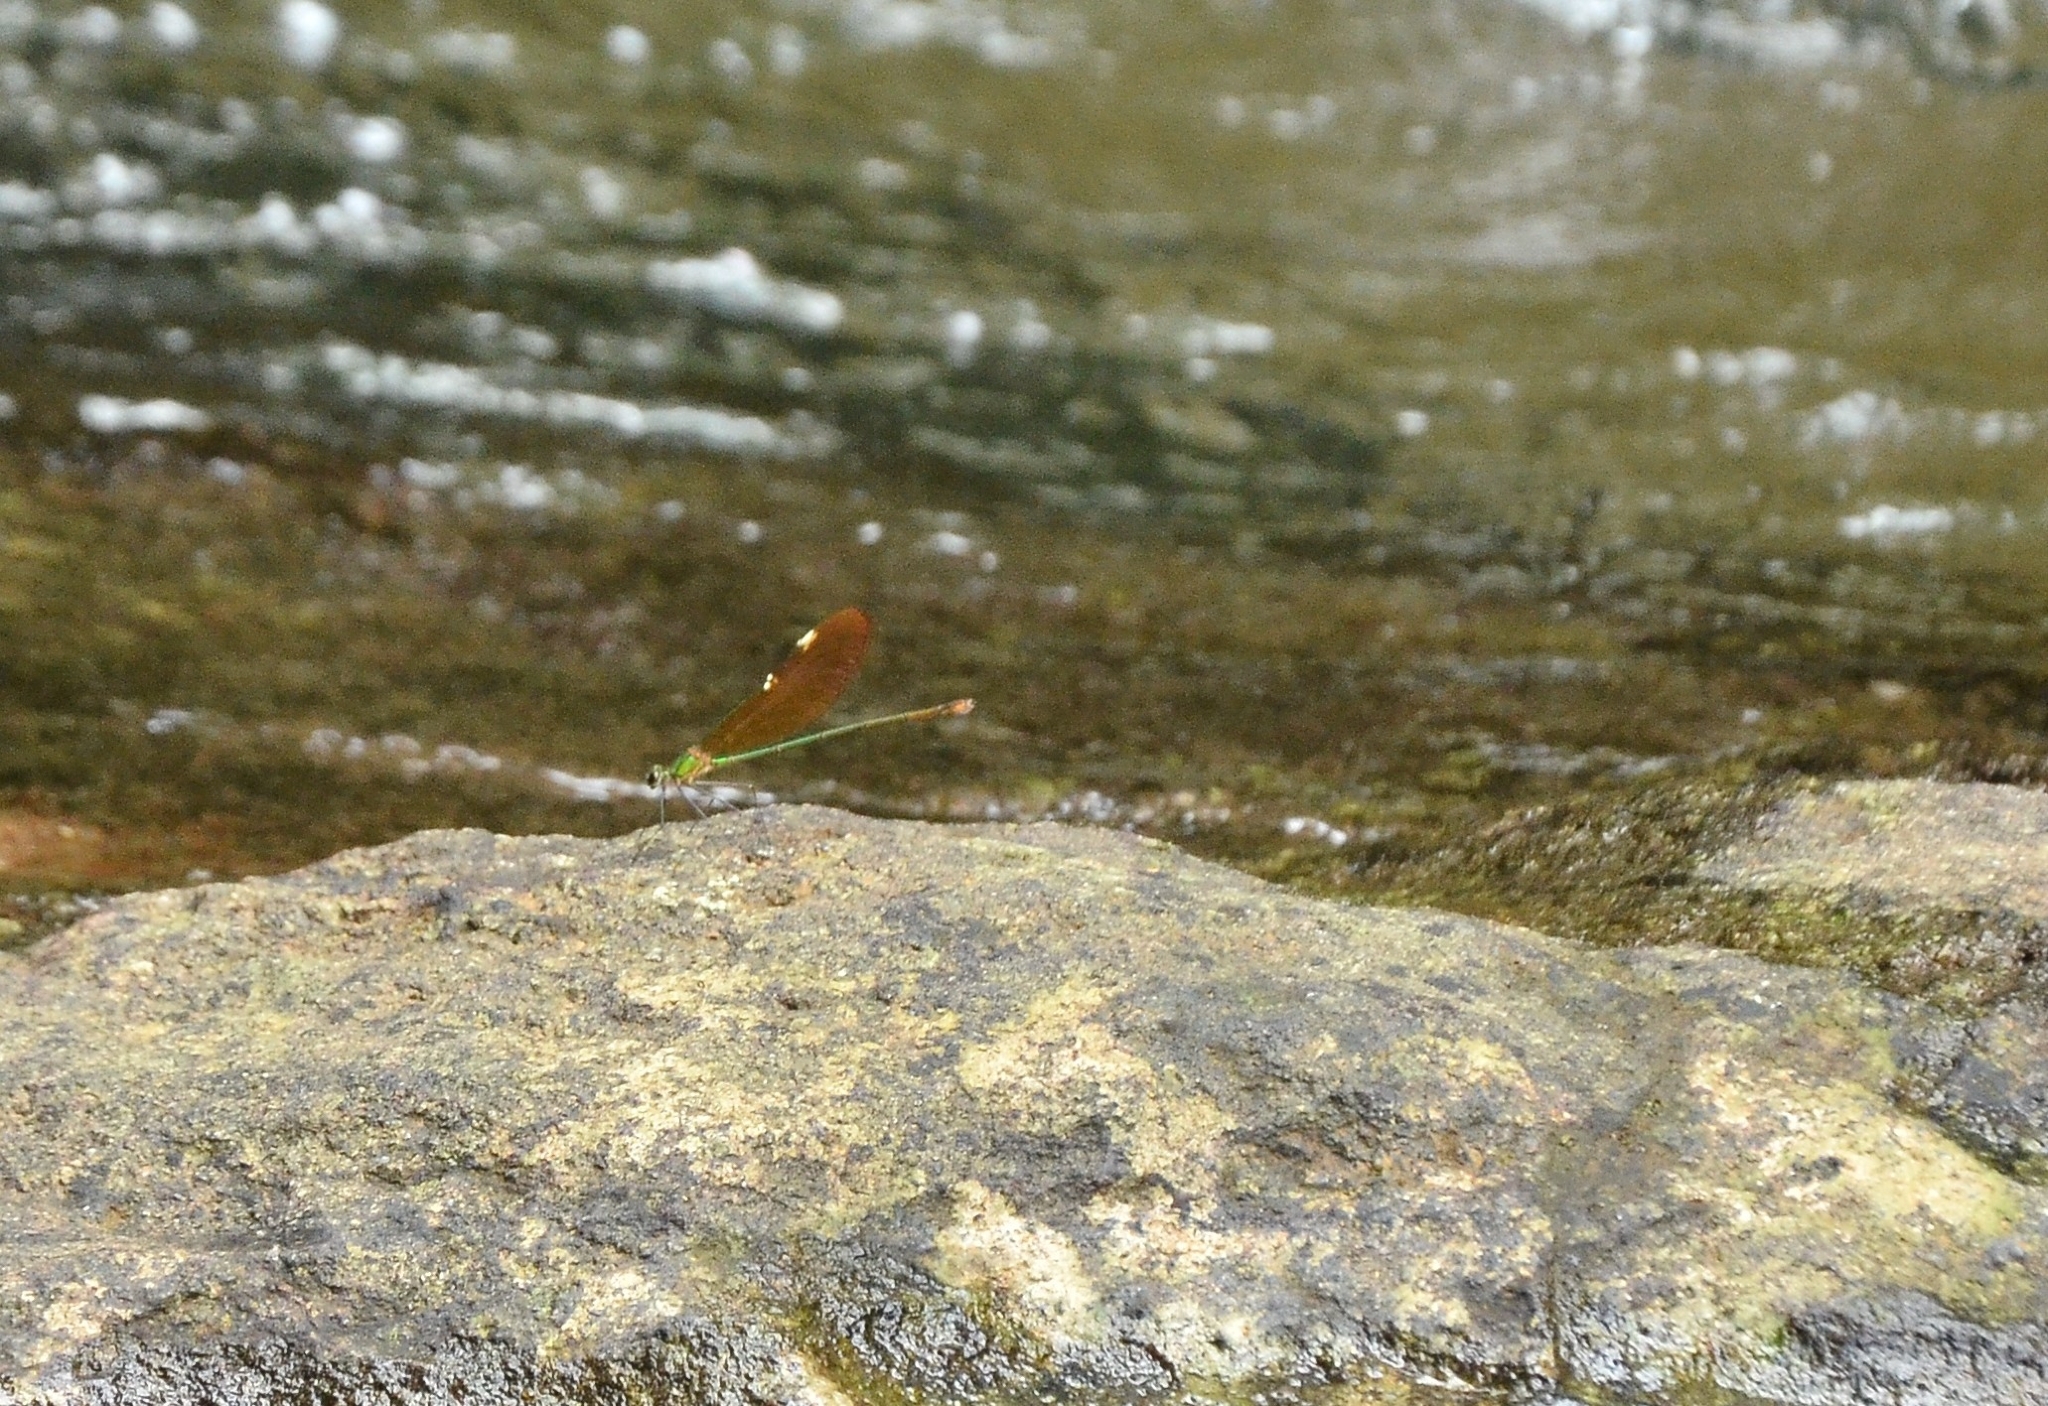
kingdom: Animalia
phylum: Arthropoda
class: Insecta
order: Odonata
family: Calopterygidae
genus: Neurobasis
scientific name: Neurobasis chinensis
